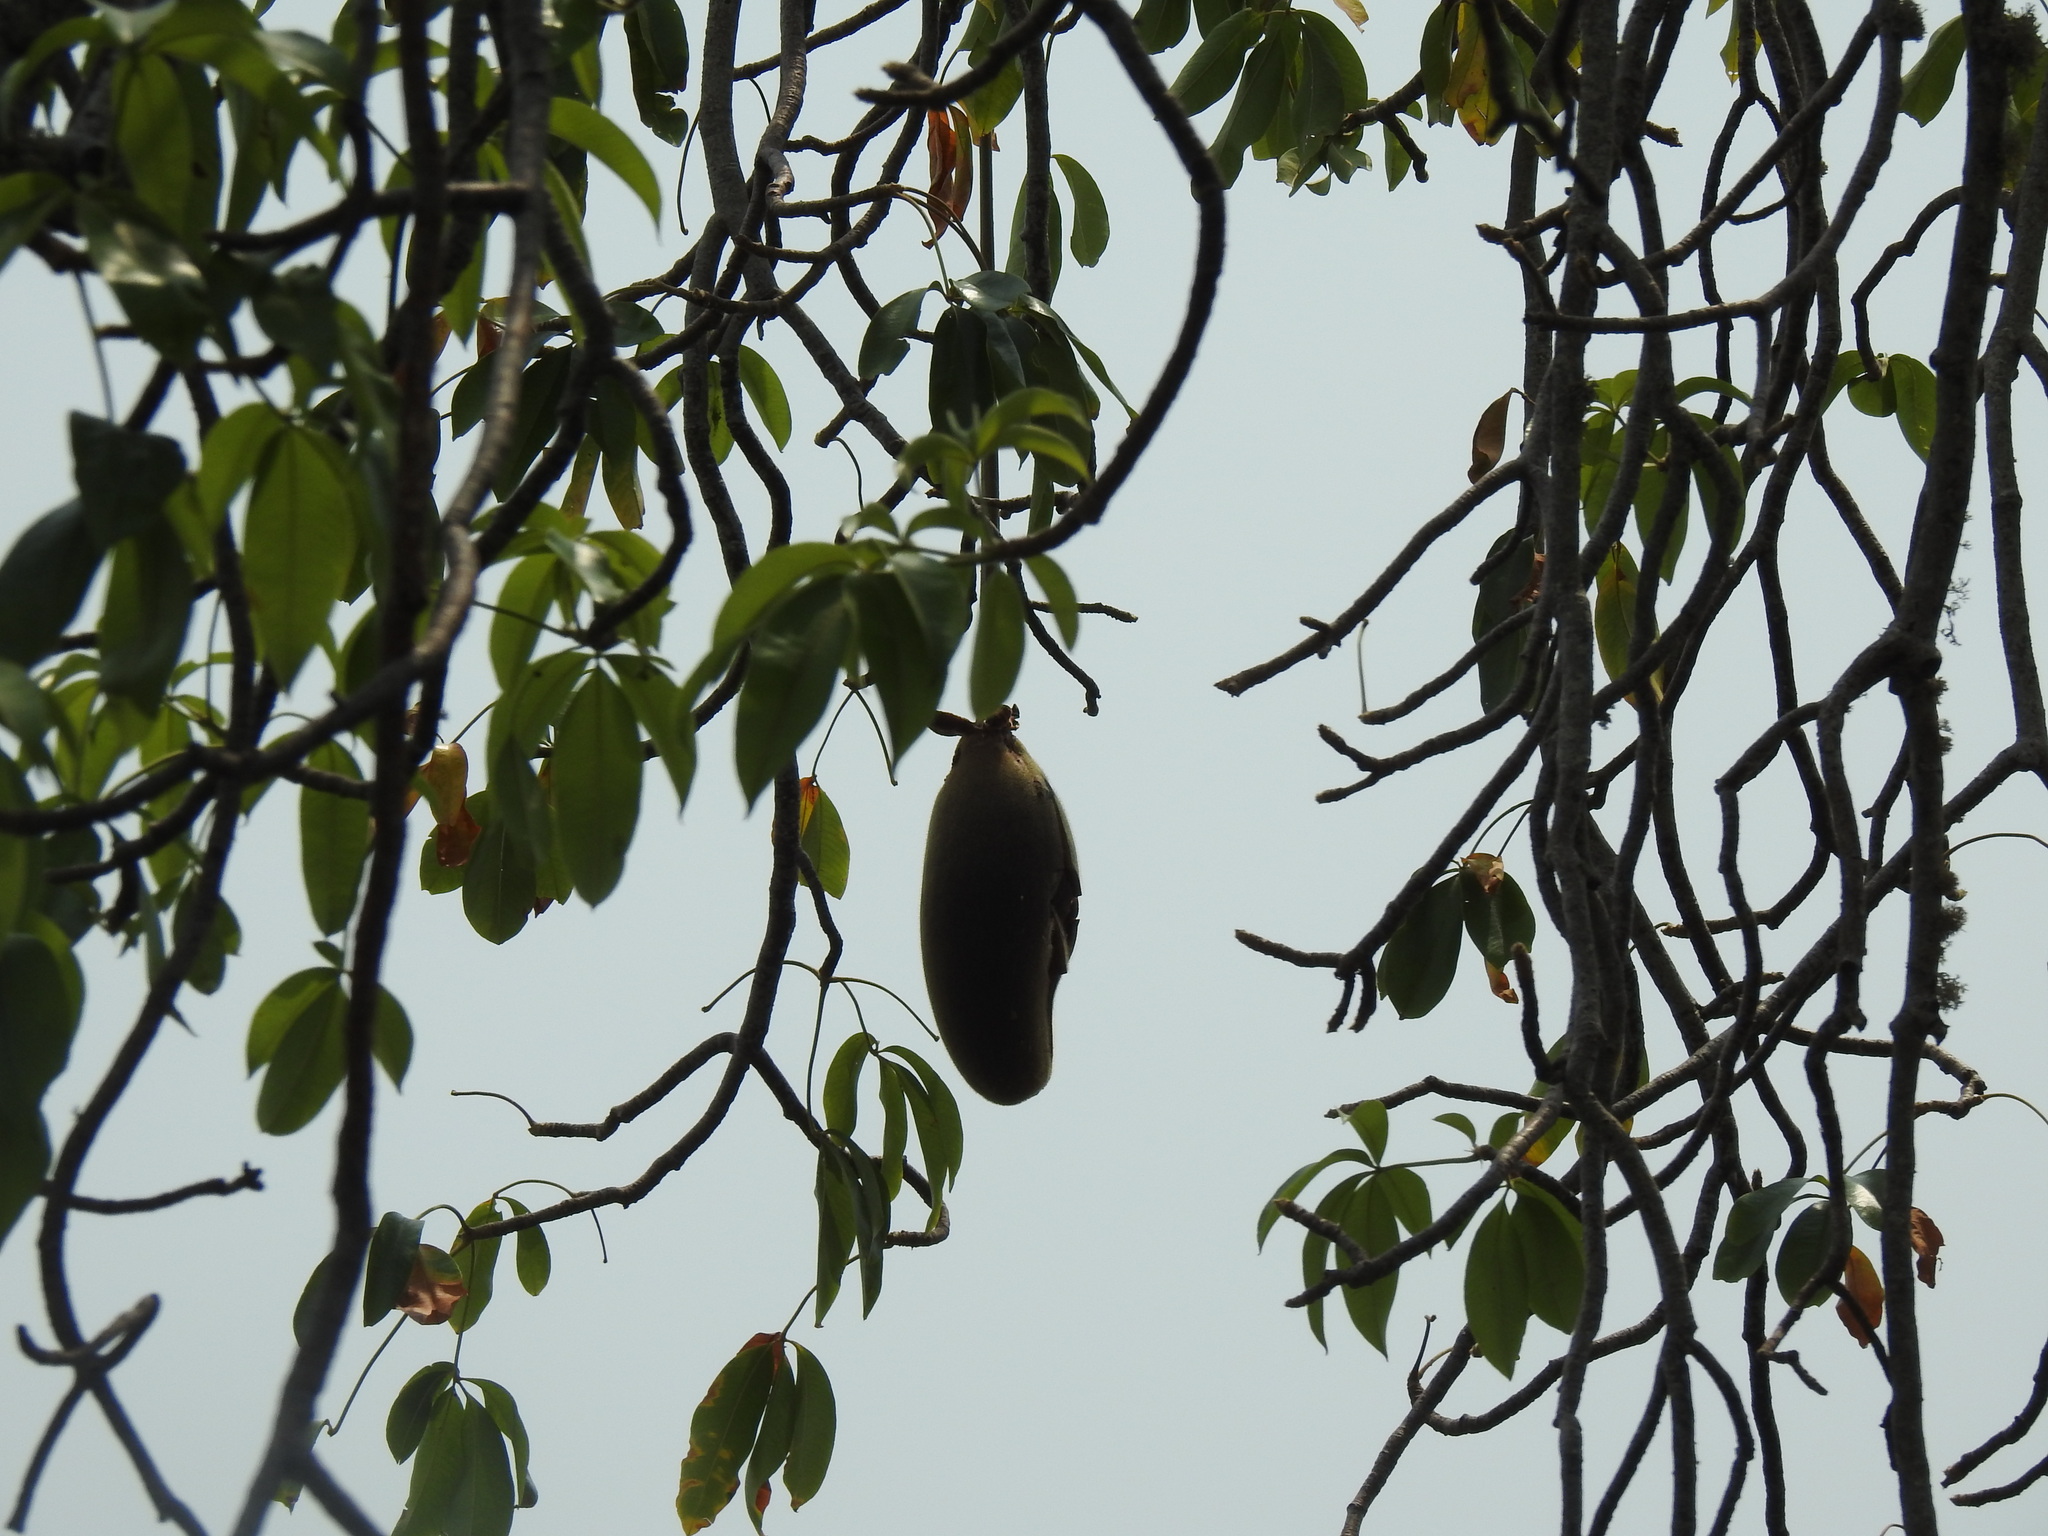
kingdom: Plantae
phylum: Tracheophyta
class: Magnoliopsida
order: Malvales
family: Malvaceae
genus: Adansonia
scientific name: Adansonia digitata
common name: Dead-rat-tree
